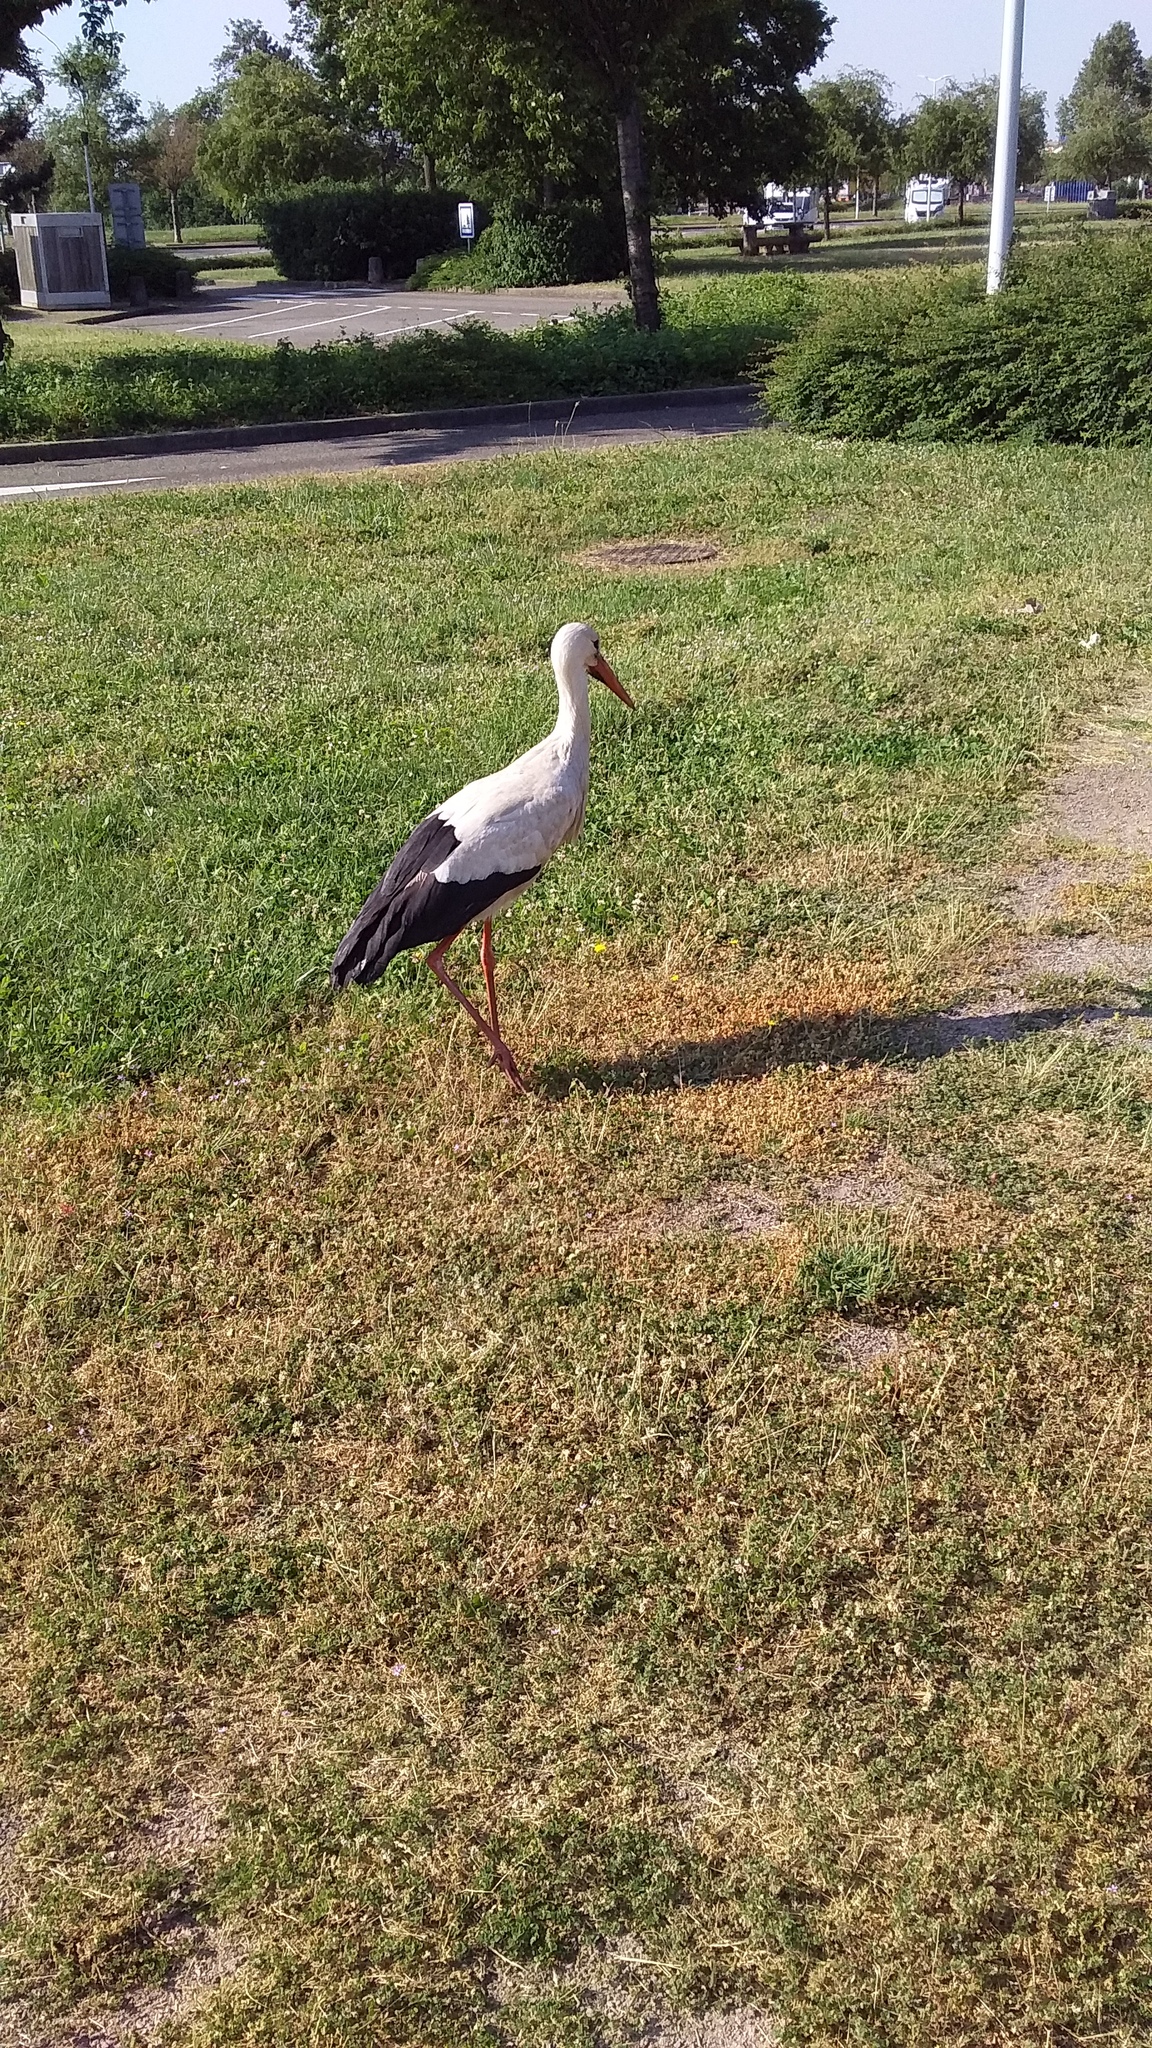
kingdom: Animalia
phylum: Chordata
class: Aves
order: Ciconiiformes
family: Ciconiidae
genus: Ciconia
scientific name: Ciconia ciconia
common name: White stork
